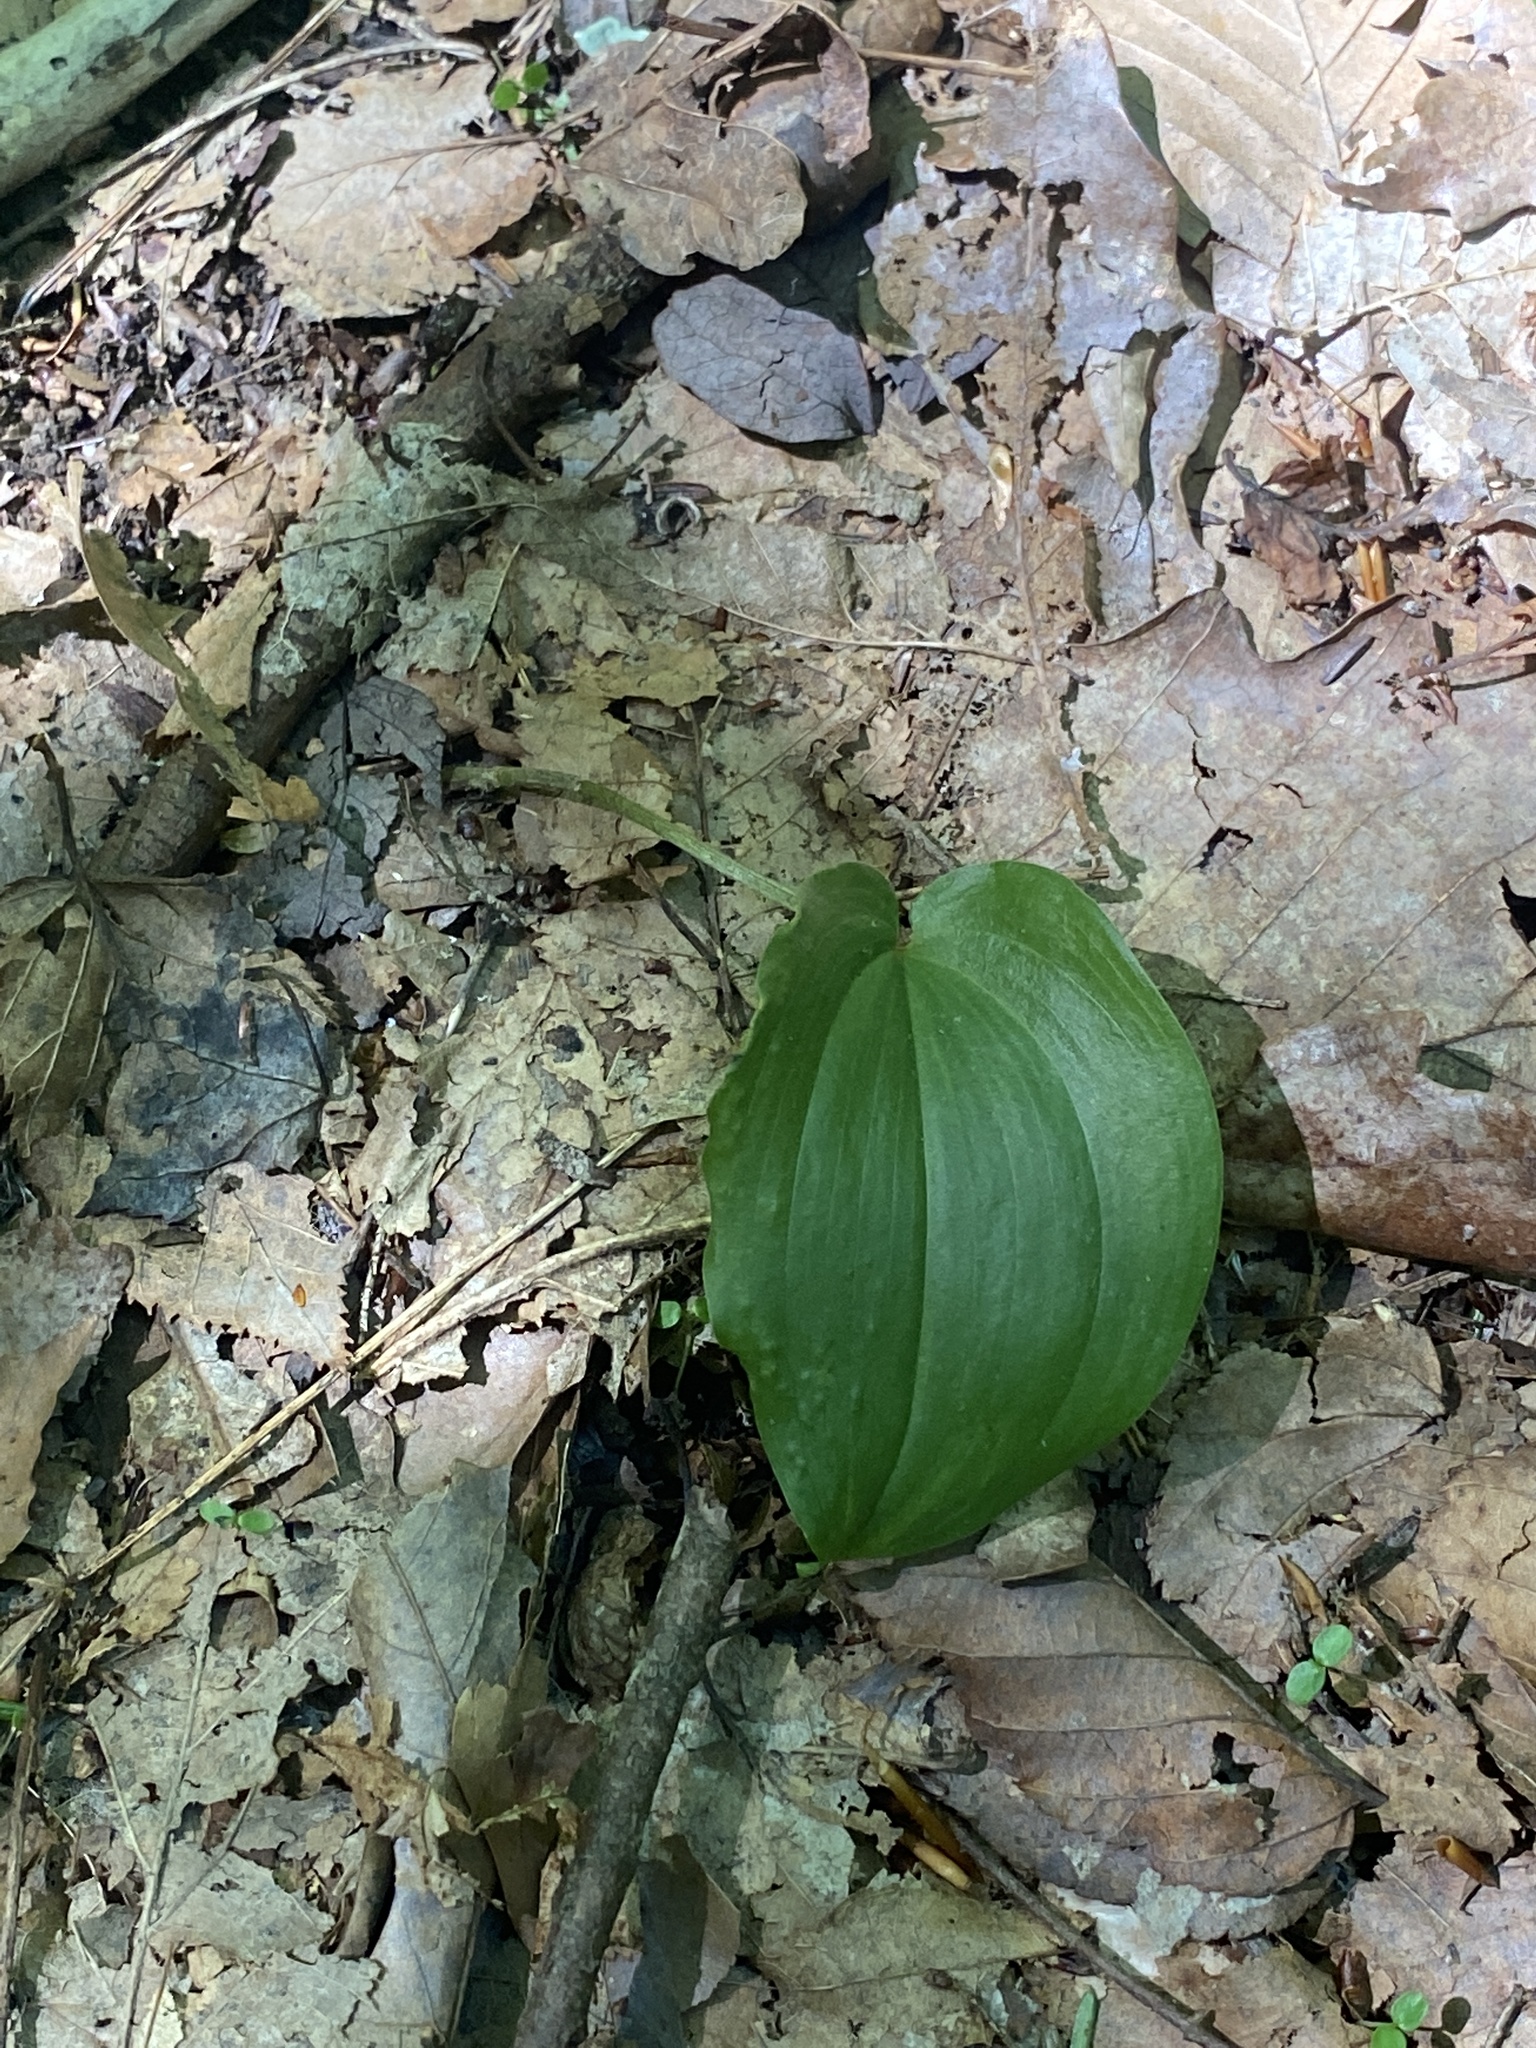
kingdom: Plantae
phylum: Tracheophyta
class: Liliopsida
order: Asparagales
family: Asparagaceae
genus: Maianthemum
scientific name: Maianthemum canadense
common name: False lily-of-the-valley
